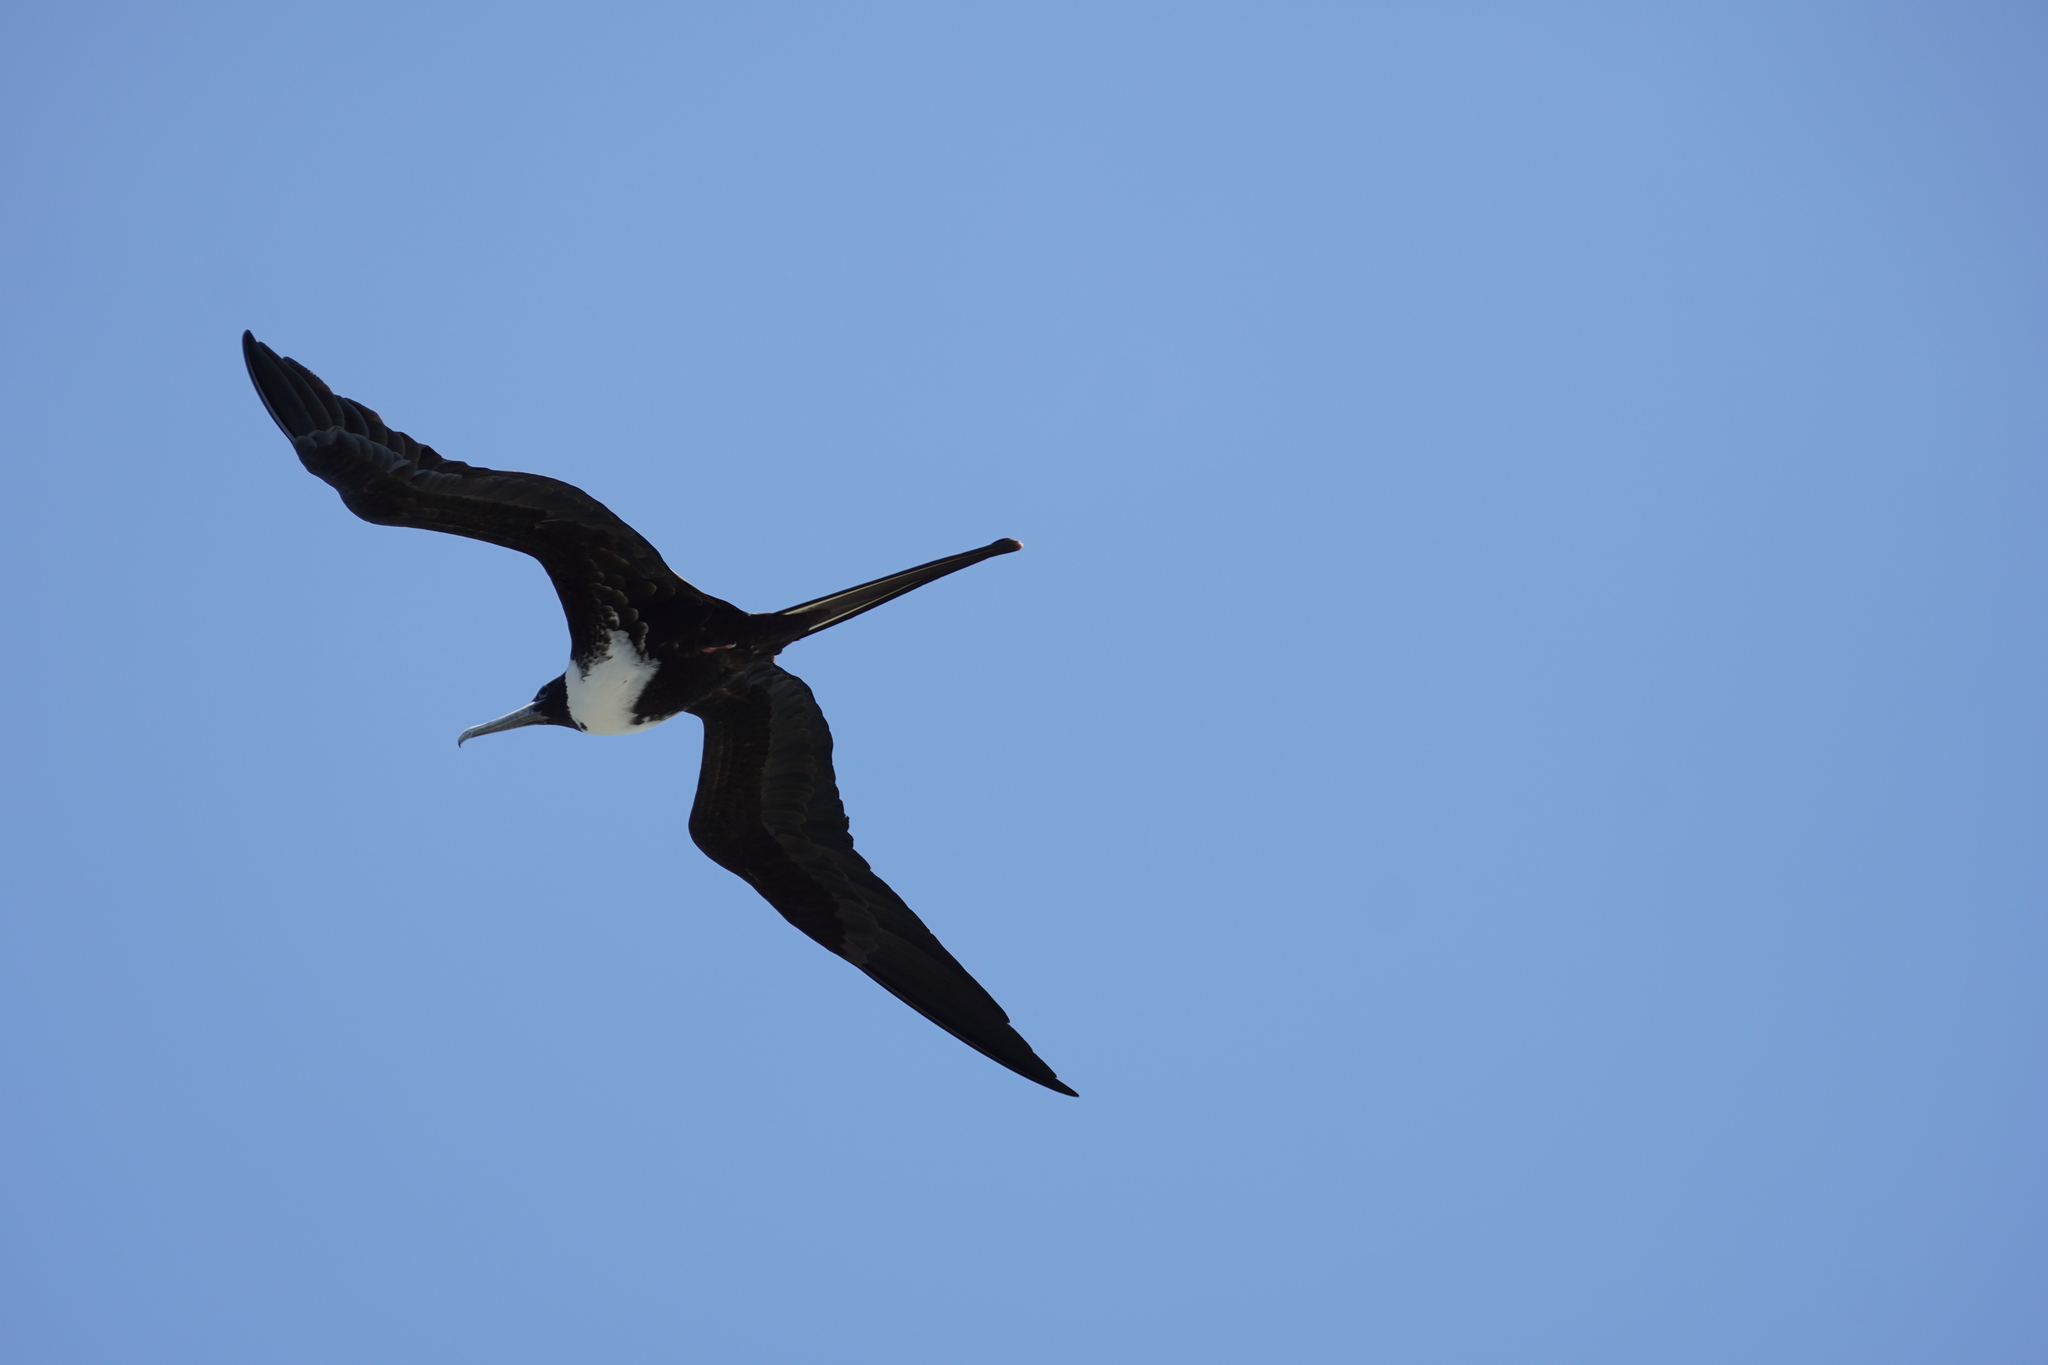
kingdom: Animalia
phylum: Chordata
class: Aves
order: Suliformes
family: Fregatidae
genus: Fregata
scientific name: Fregata magnificens
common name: Magnificent frigatebird
